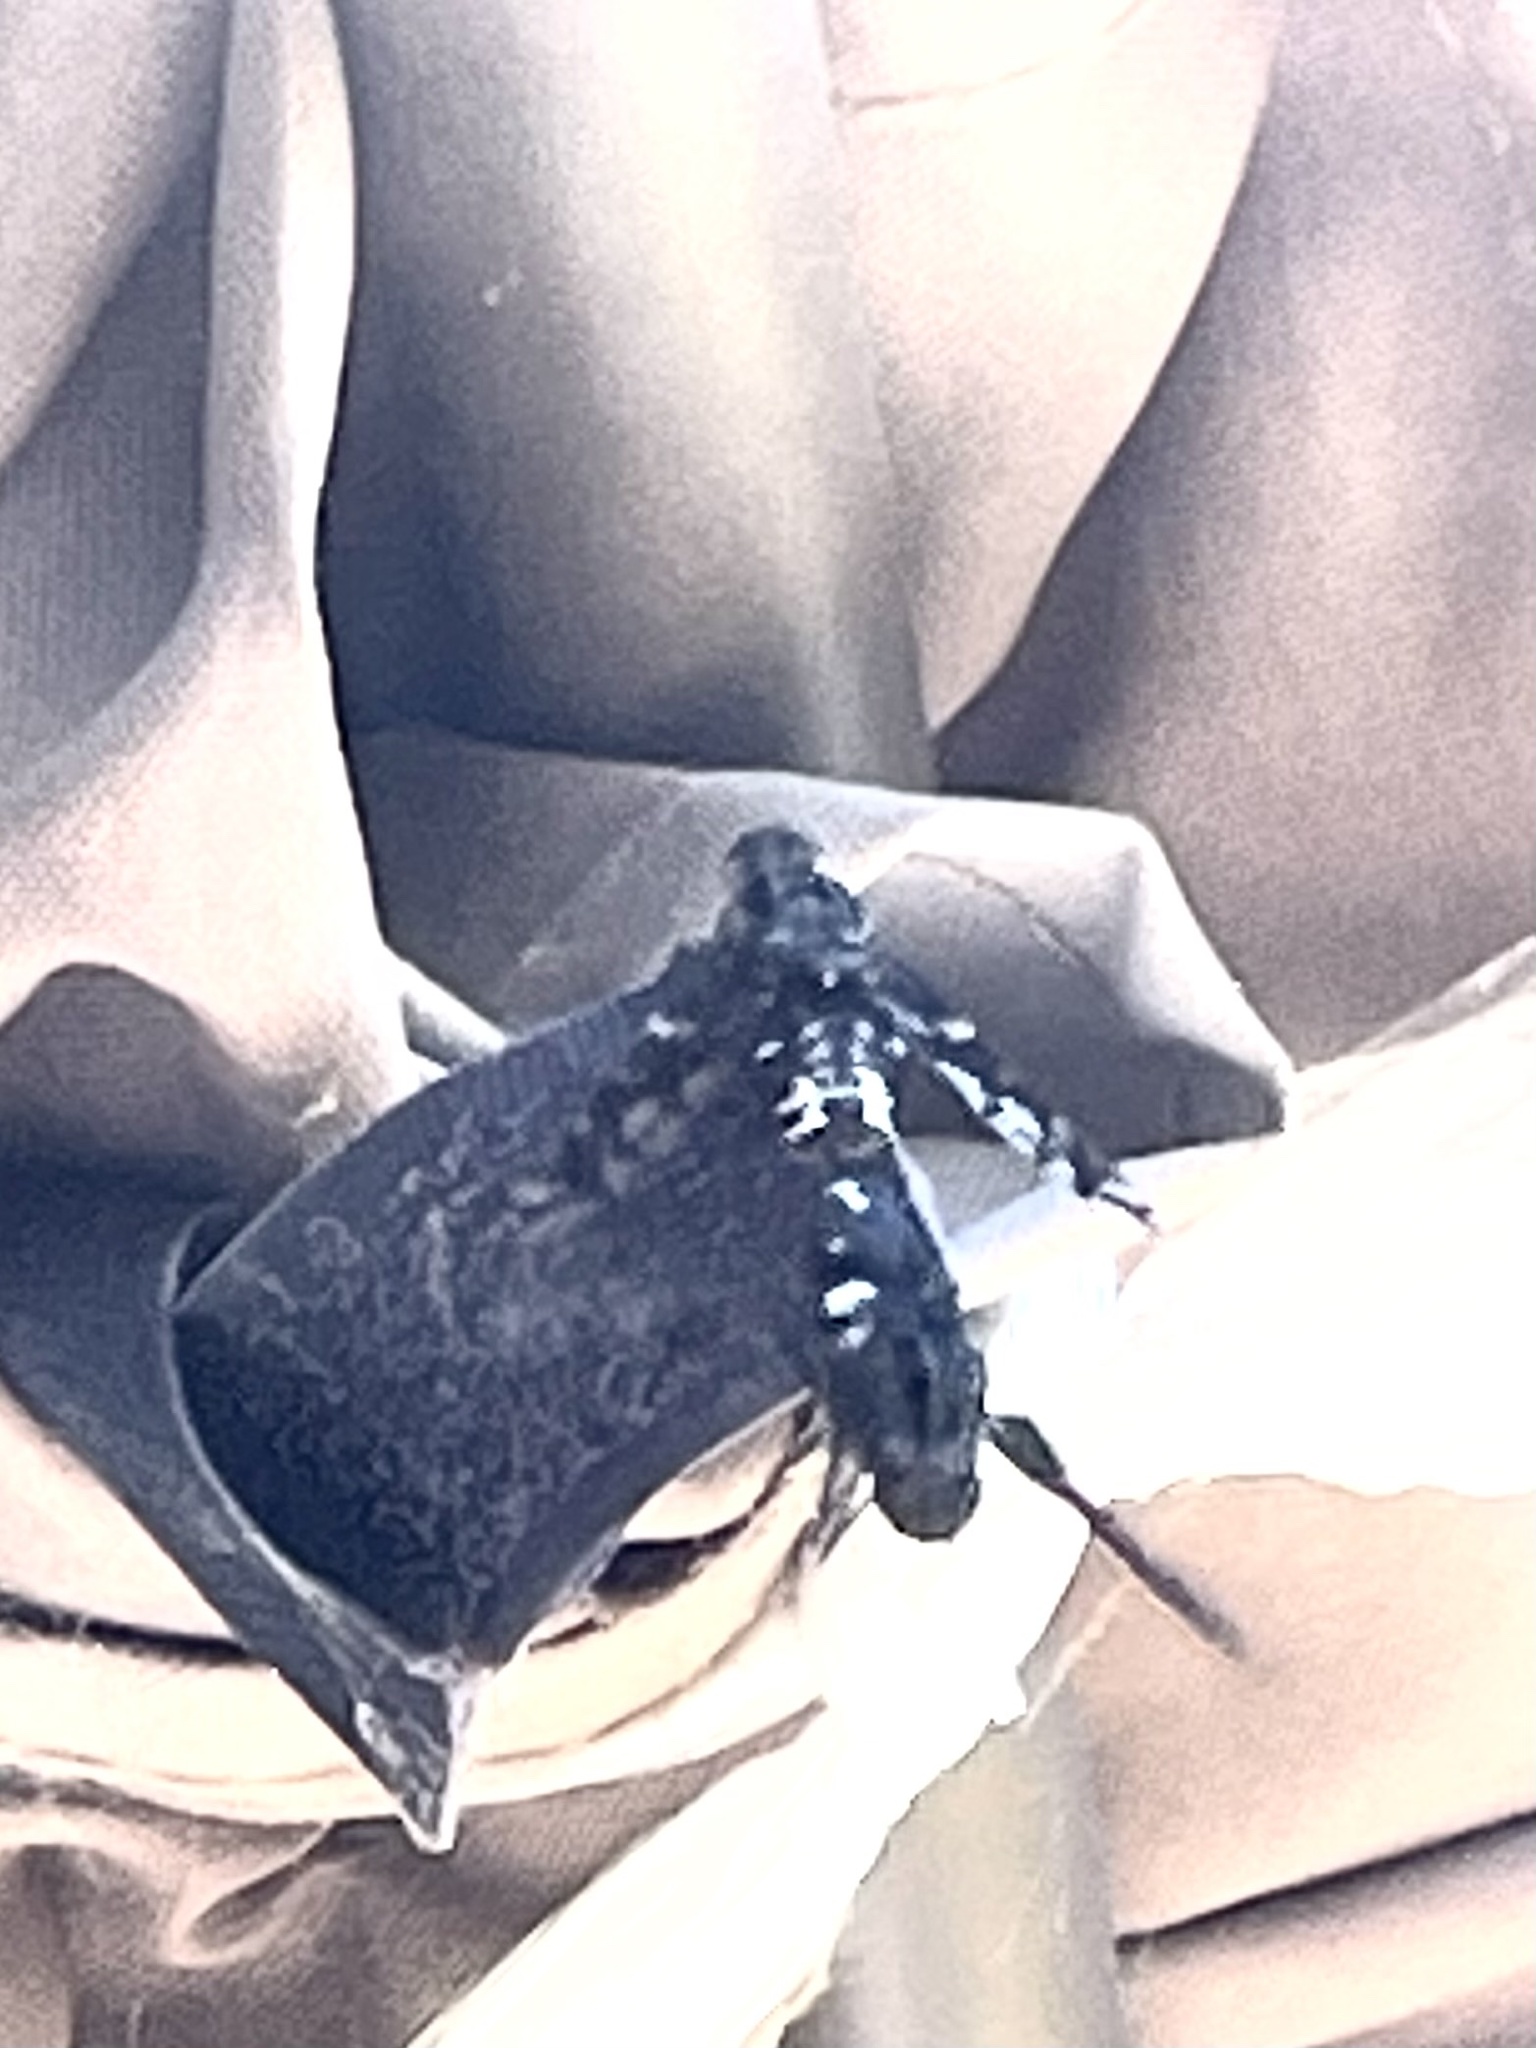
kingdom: Animalia
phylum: Arthropoda
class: Insecta
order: Diptera
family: Bombyliidae
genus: Xenox
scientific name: Xenox tigrinus
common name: Tiger bee fly
